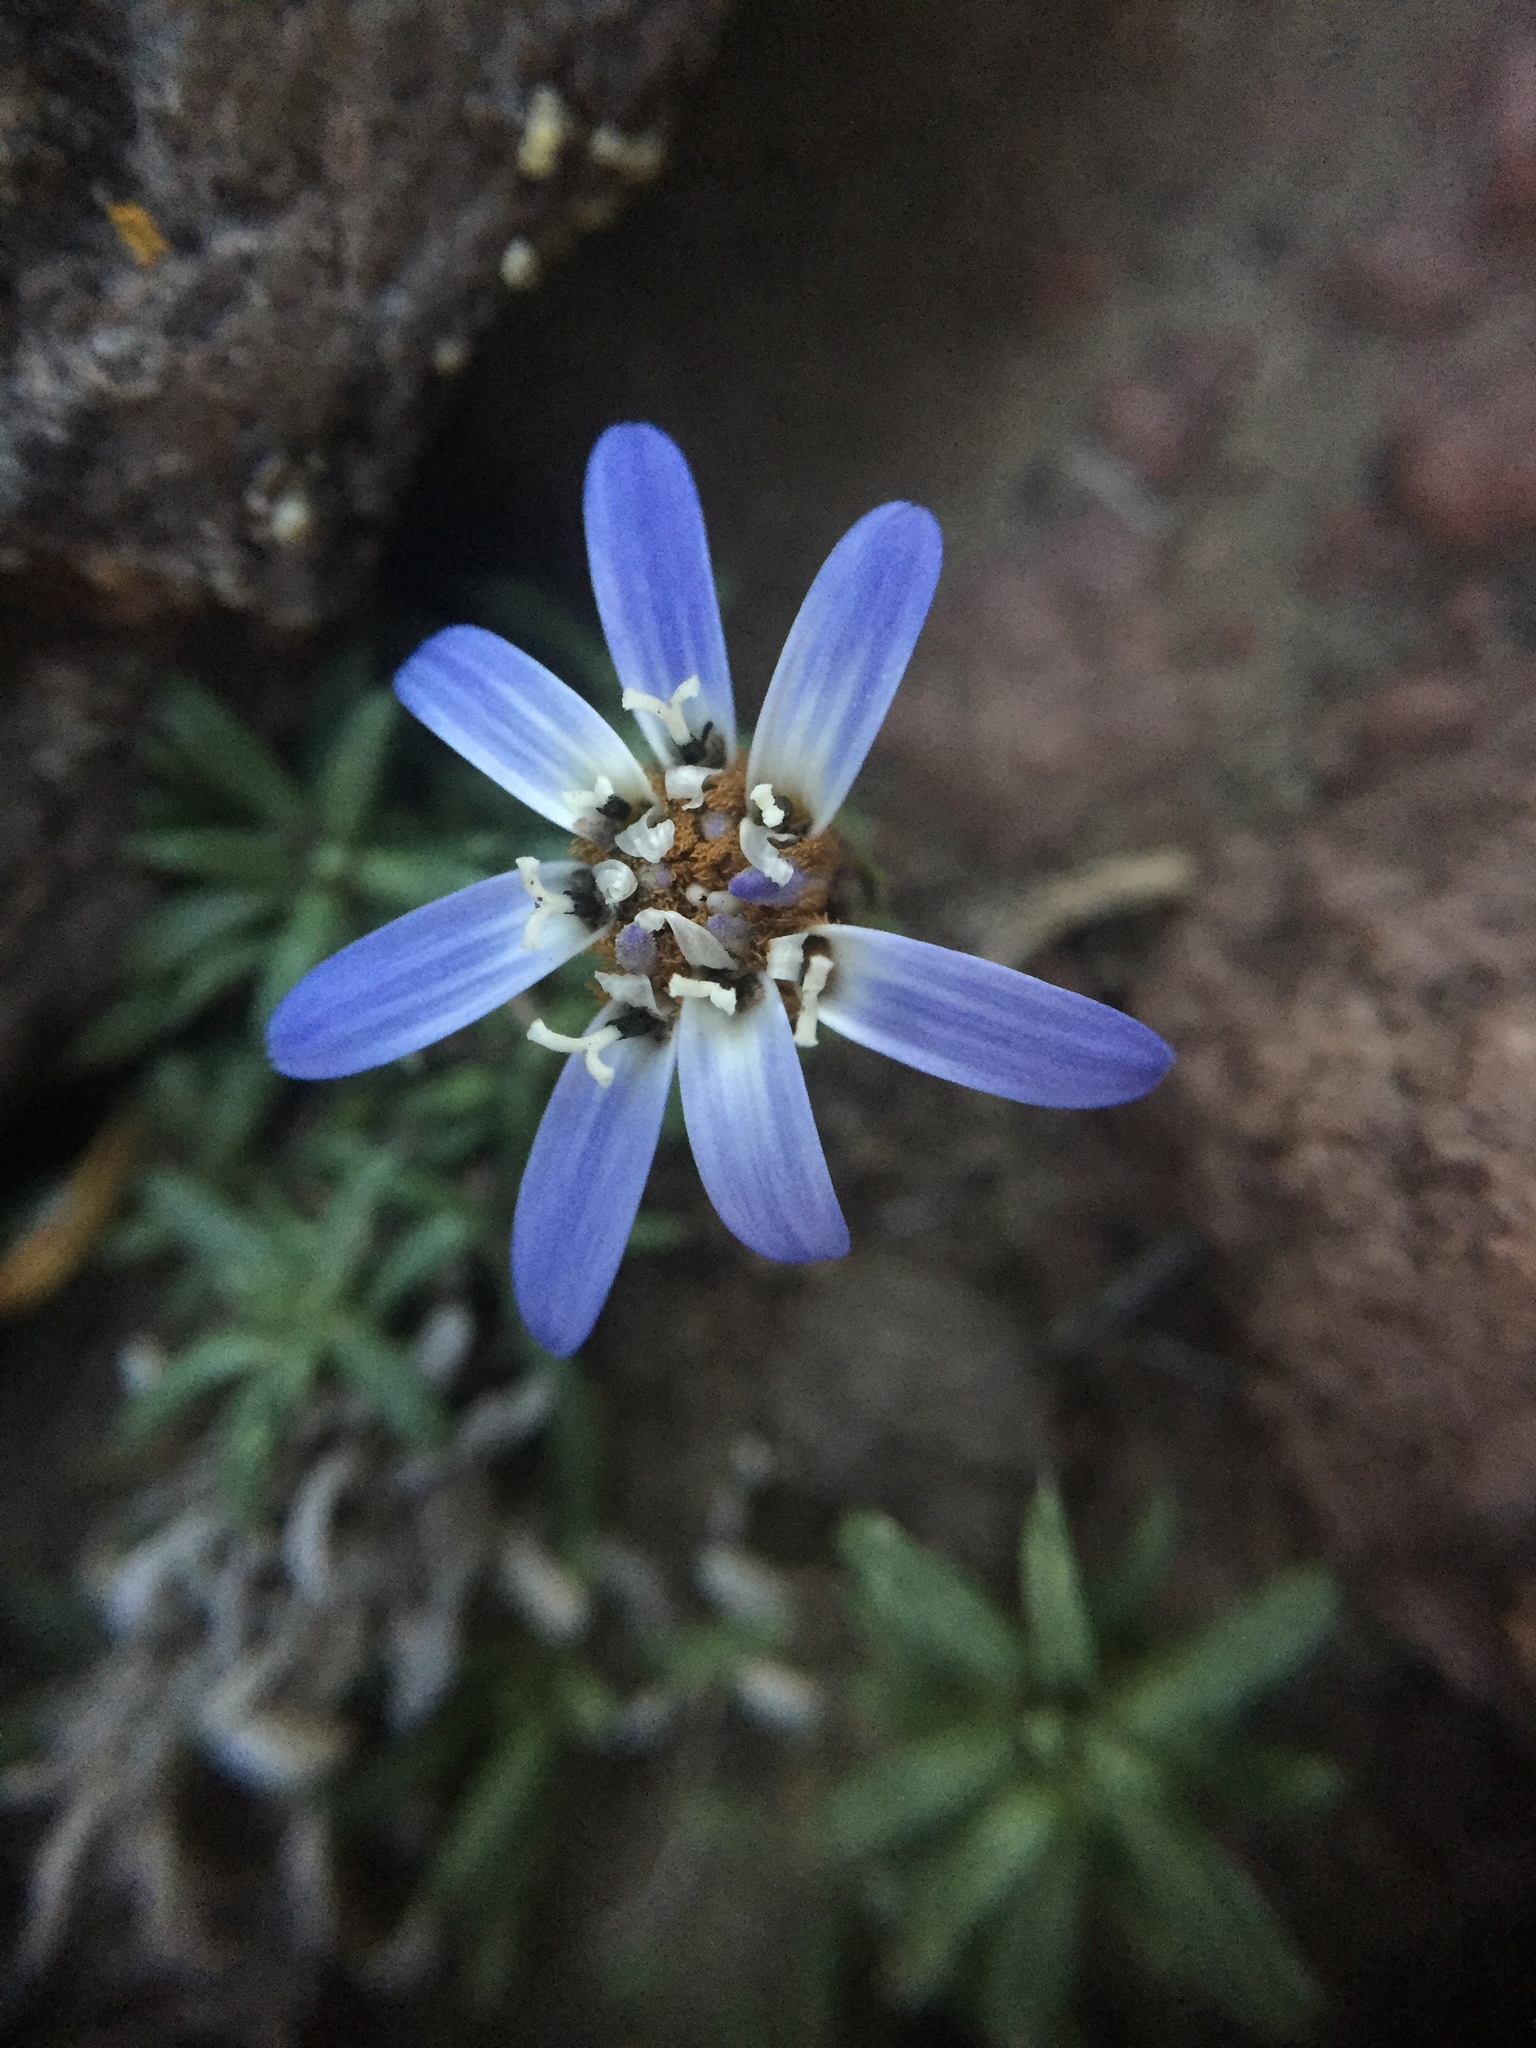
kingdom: Plantae
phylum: Tracheophyta
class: Magnoliopsida
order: Asterales
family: Asteraceae
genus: Perezia
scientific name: Perezia recurvata
